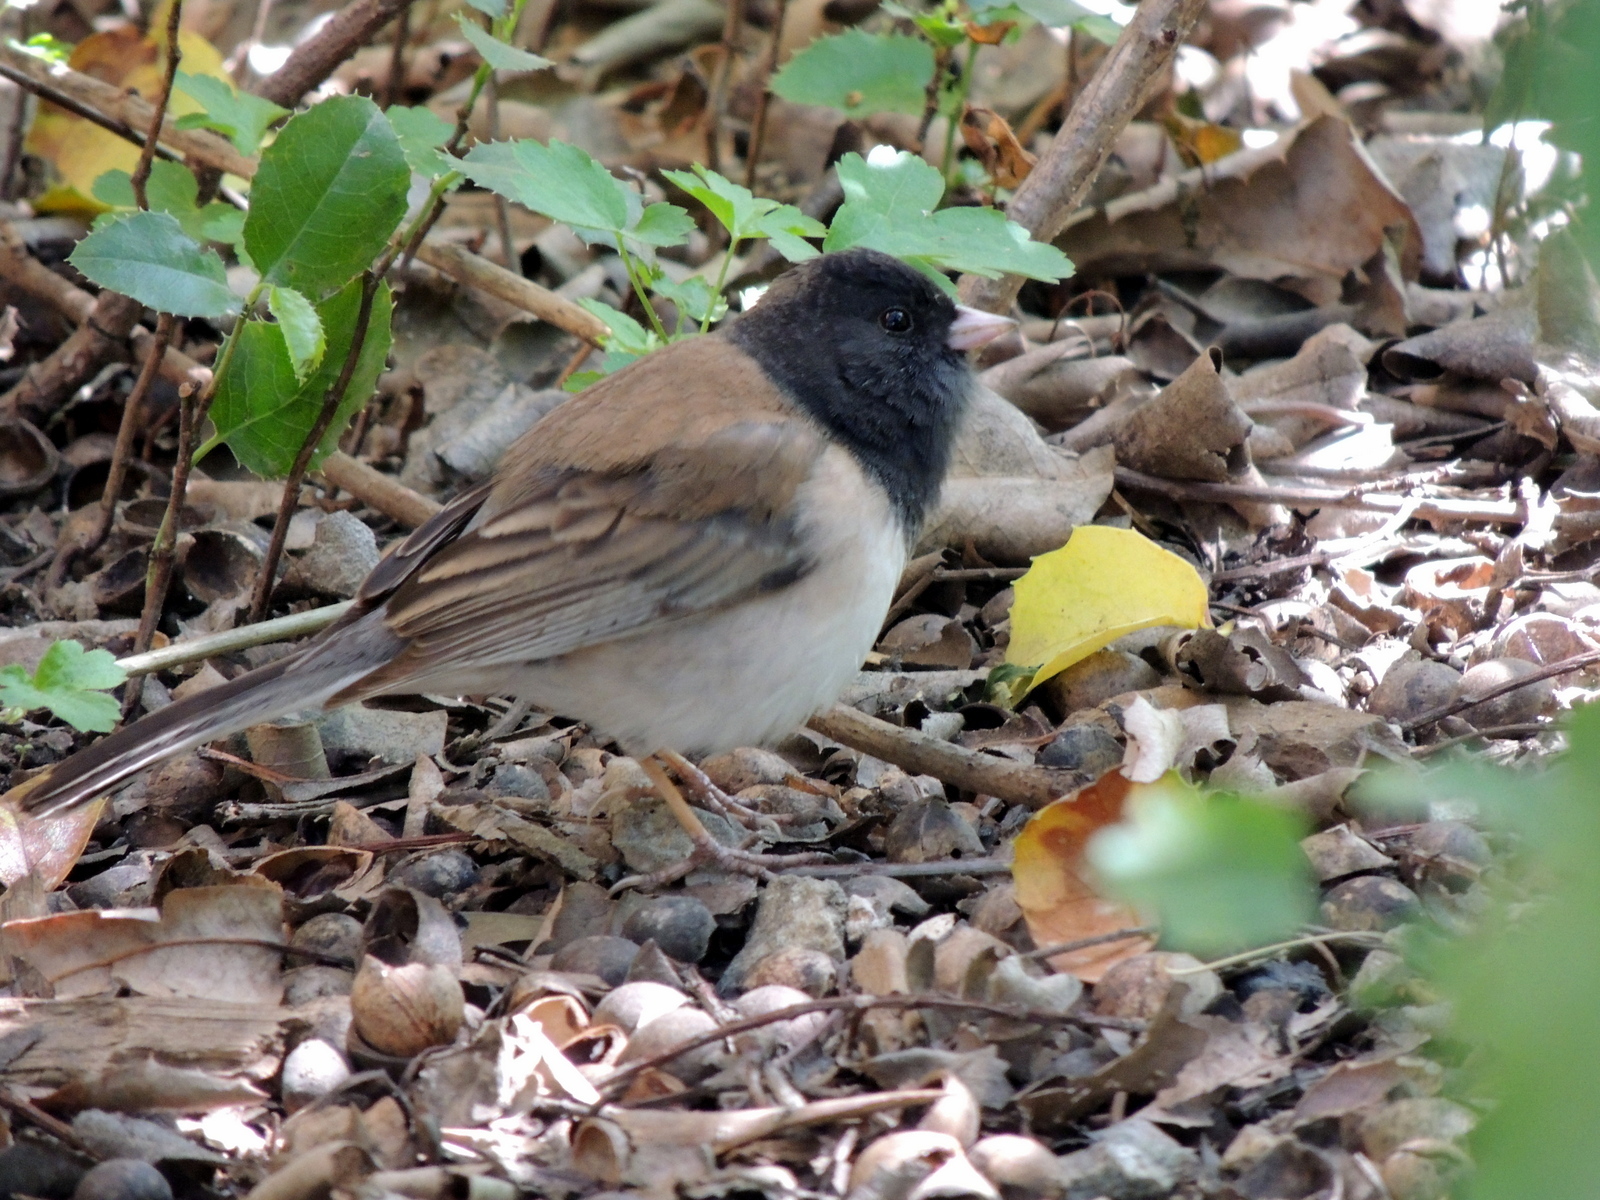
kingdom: Animalia
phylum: Chordata
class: Aves
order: Passeriformes
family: Passerellidae
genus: Junco
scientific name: Junco hyemalis
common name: Dark-eyed junco
